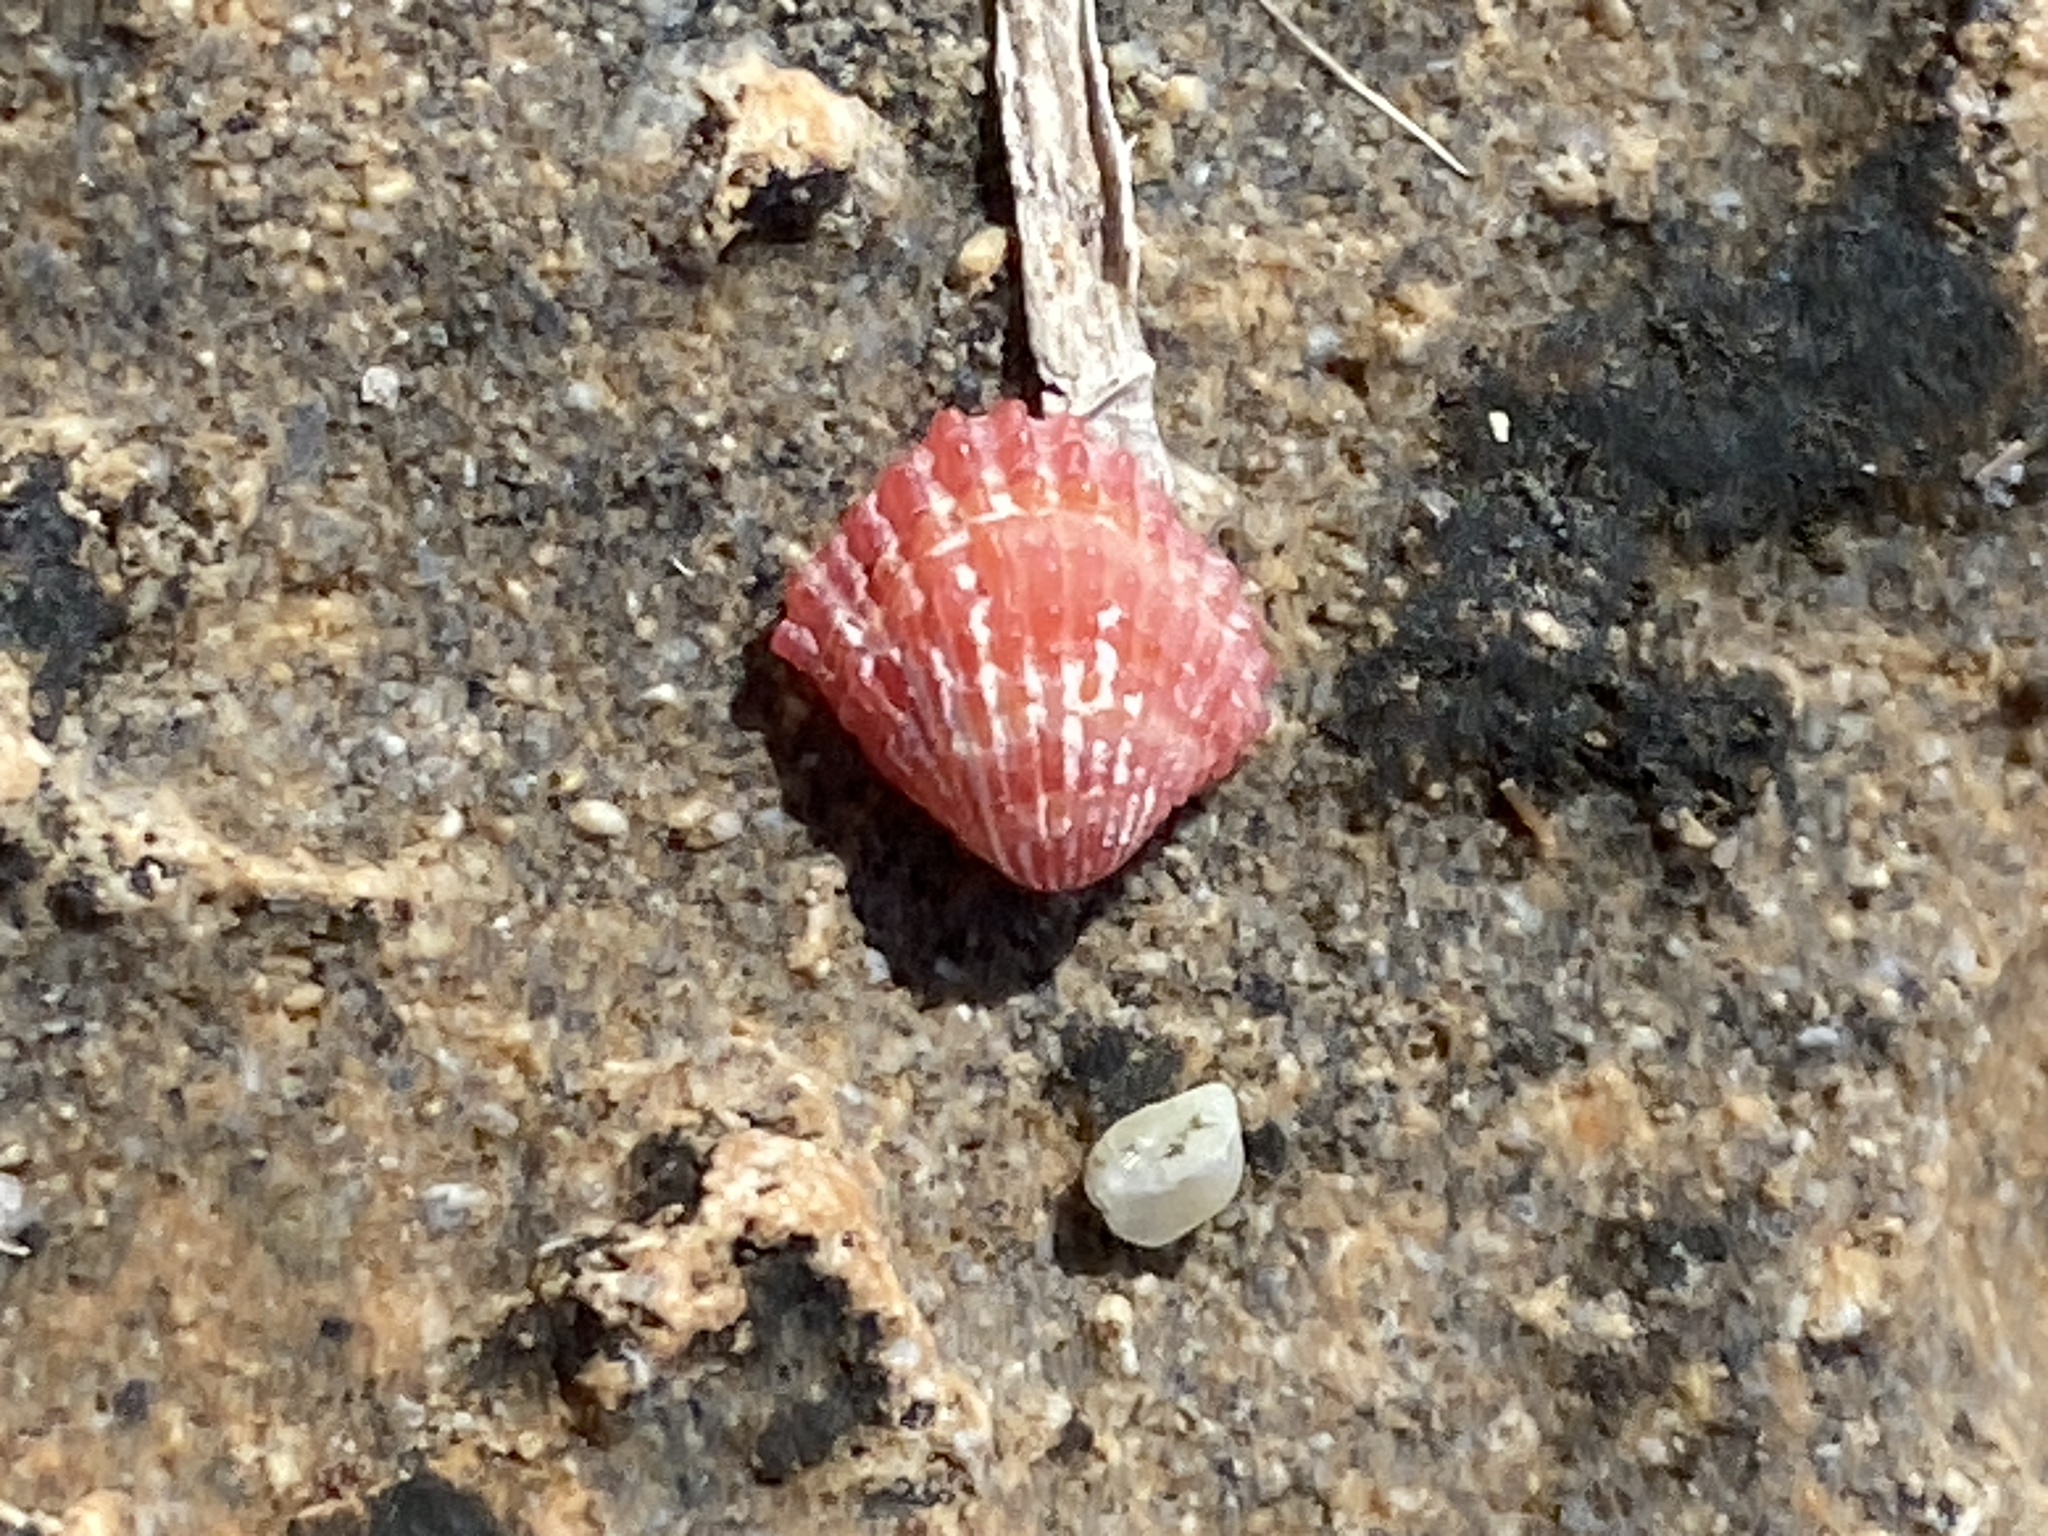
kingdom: Animalia
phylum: Mollusca
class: Bivalvia
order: Carditida
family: Carditidae
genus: Glans
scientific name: Glans trapezia
